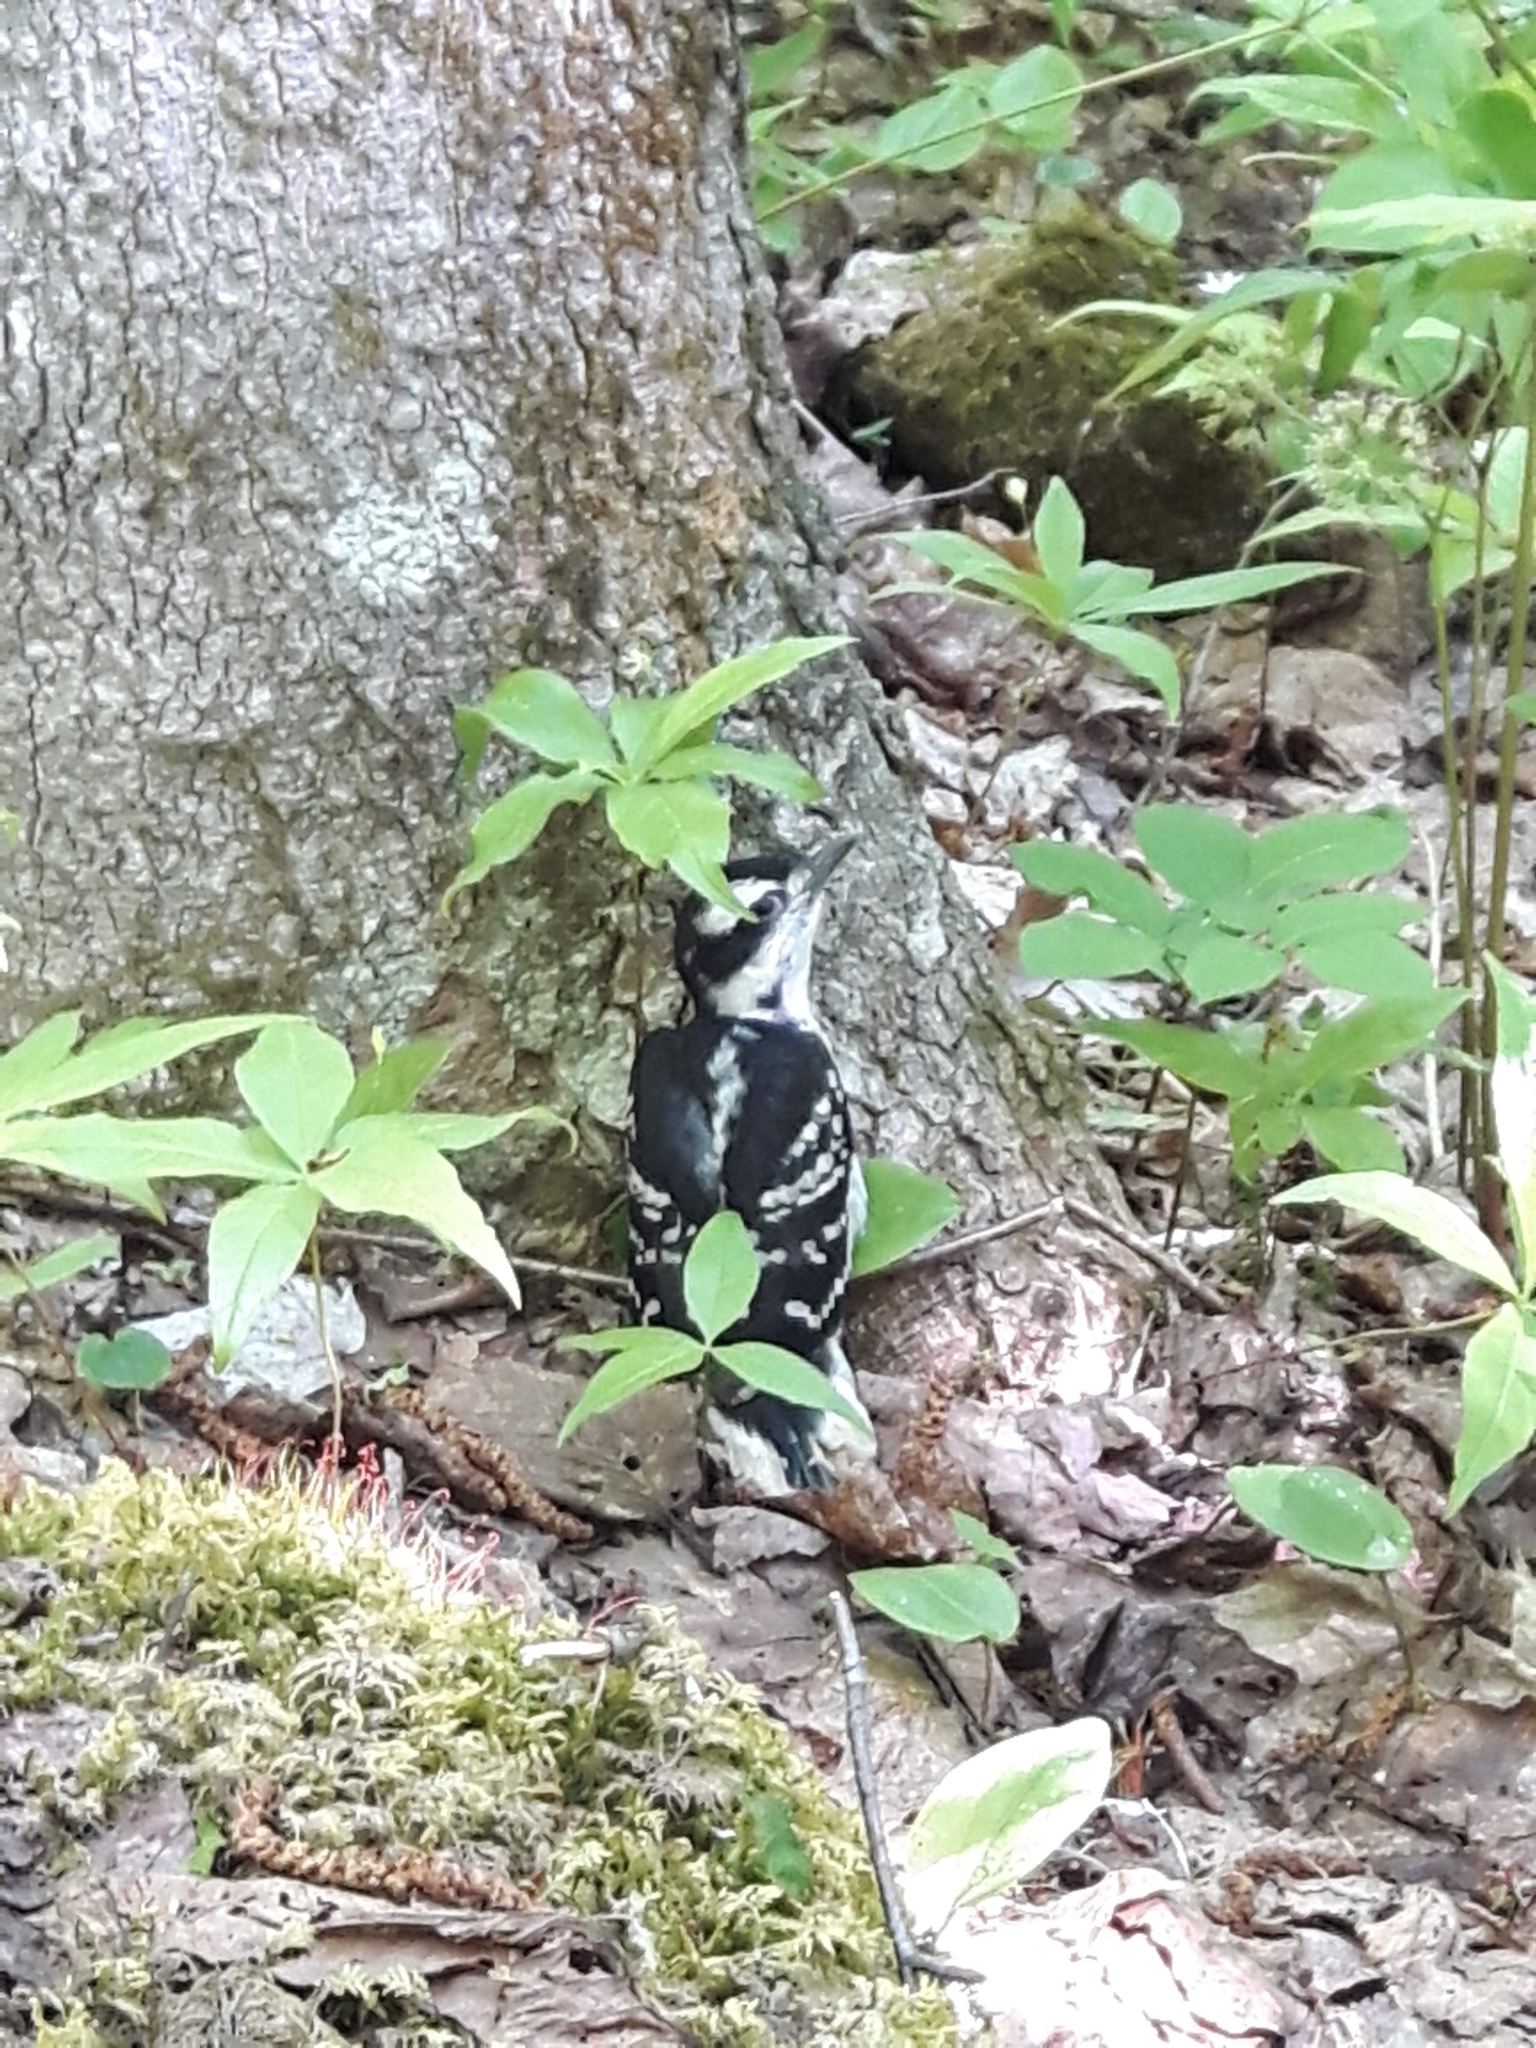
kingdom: Animalia
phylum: Chordata
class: Aves
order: Piciformes
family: Picidae
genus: Leuconotopicus
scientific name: Leuconotopicus villosus
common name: Hairy woodpecker
